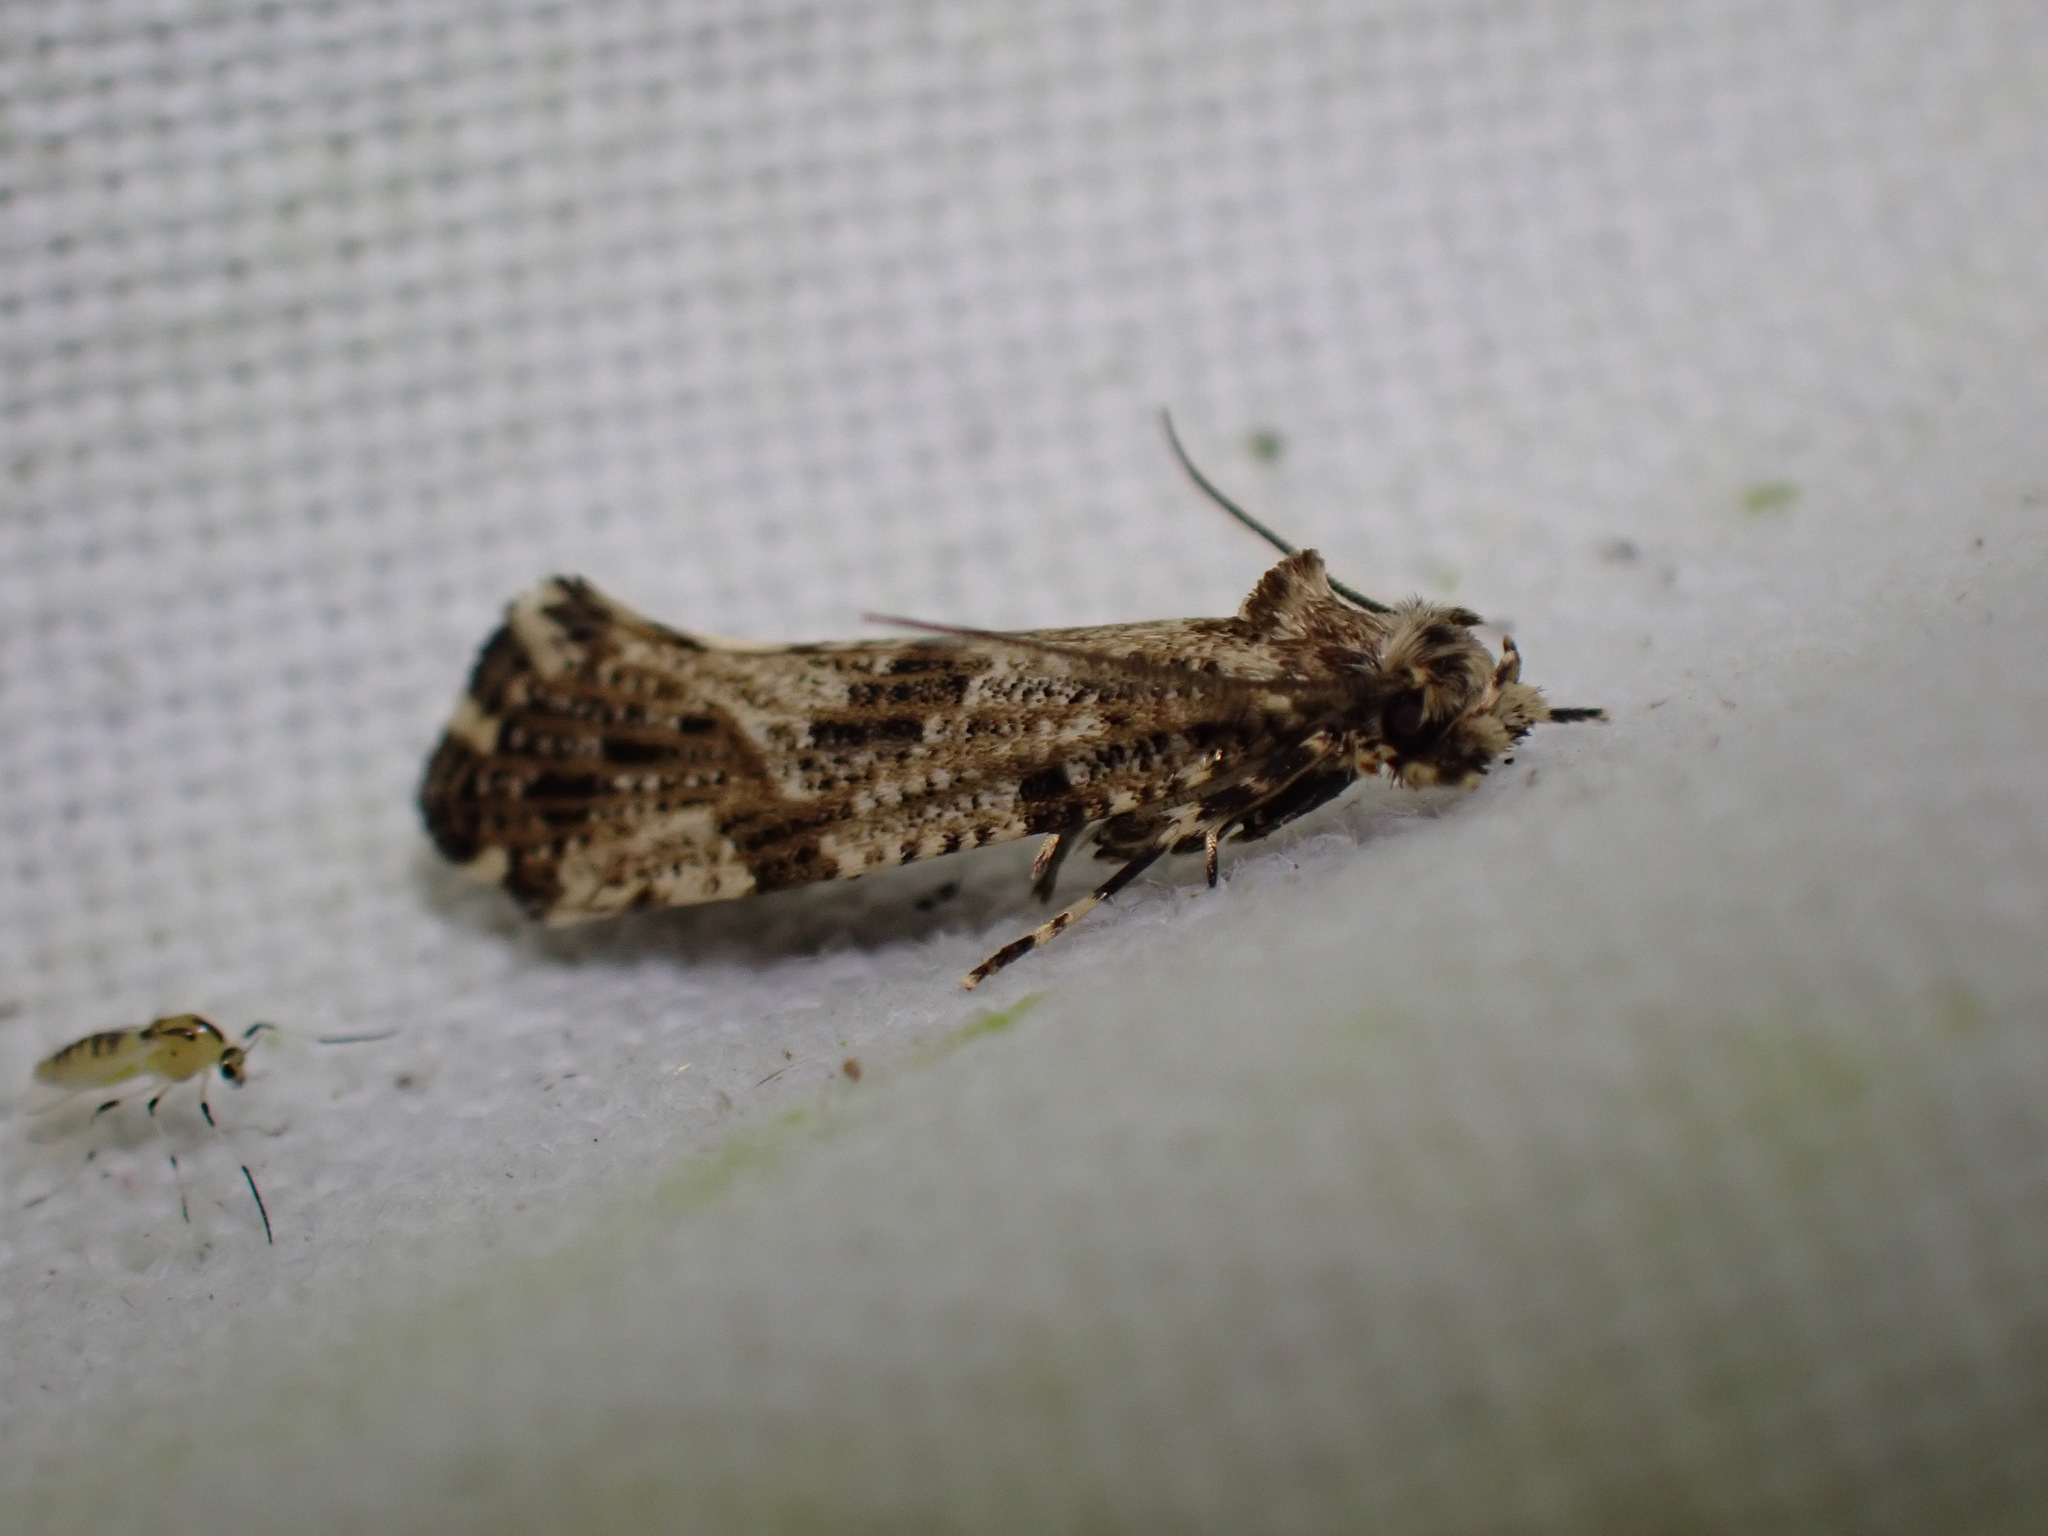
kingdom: Animalia
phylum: Arthropoda
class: Insecta
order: Lepidoptera
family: Tineidae
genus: Morophaga
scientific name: Morophaga choragella
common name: Large clothes
